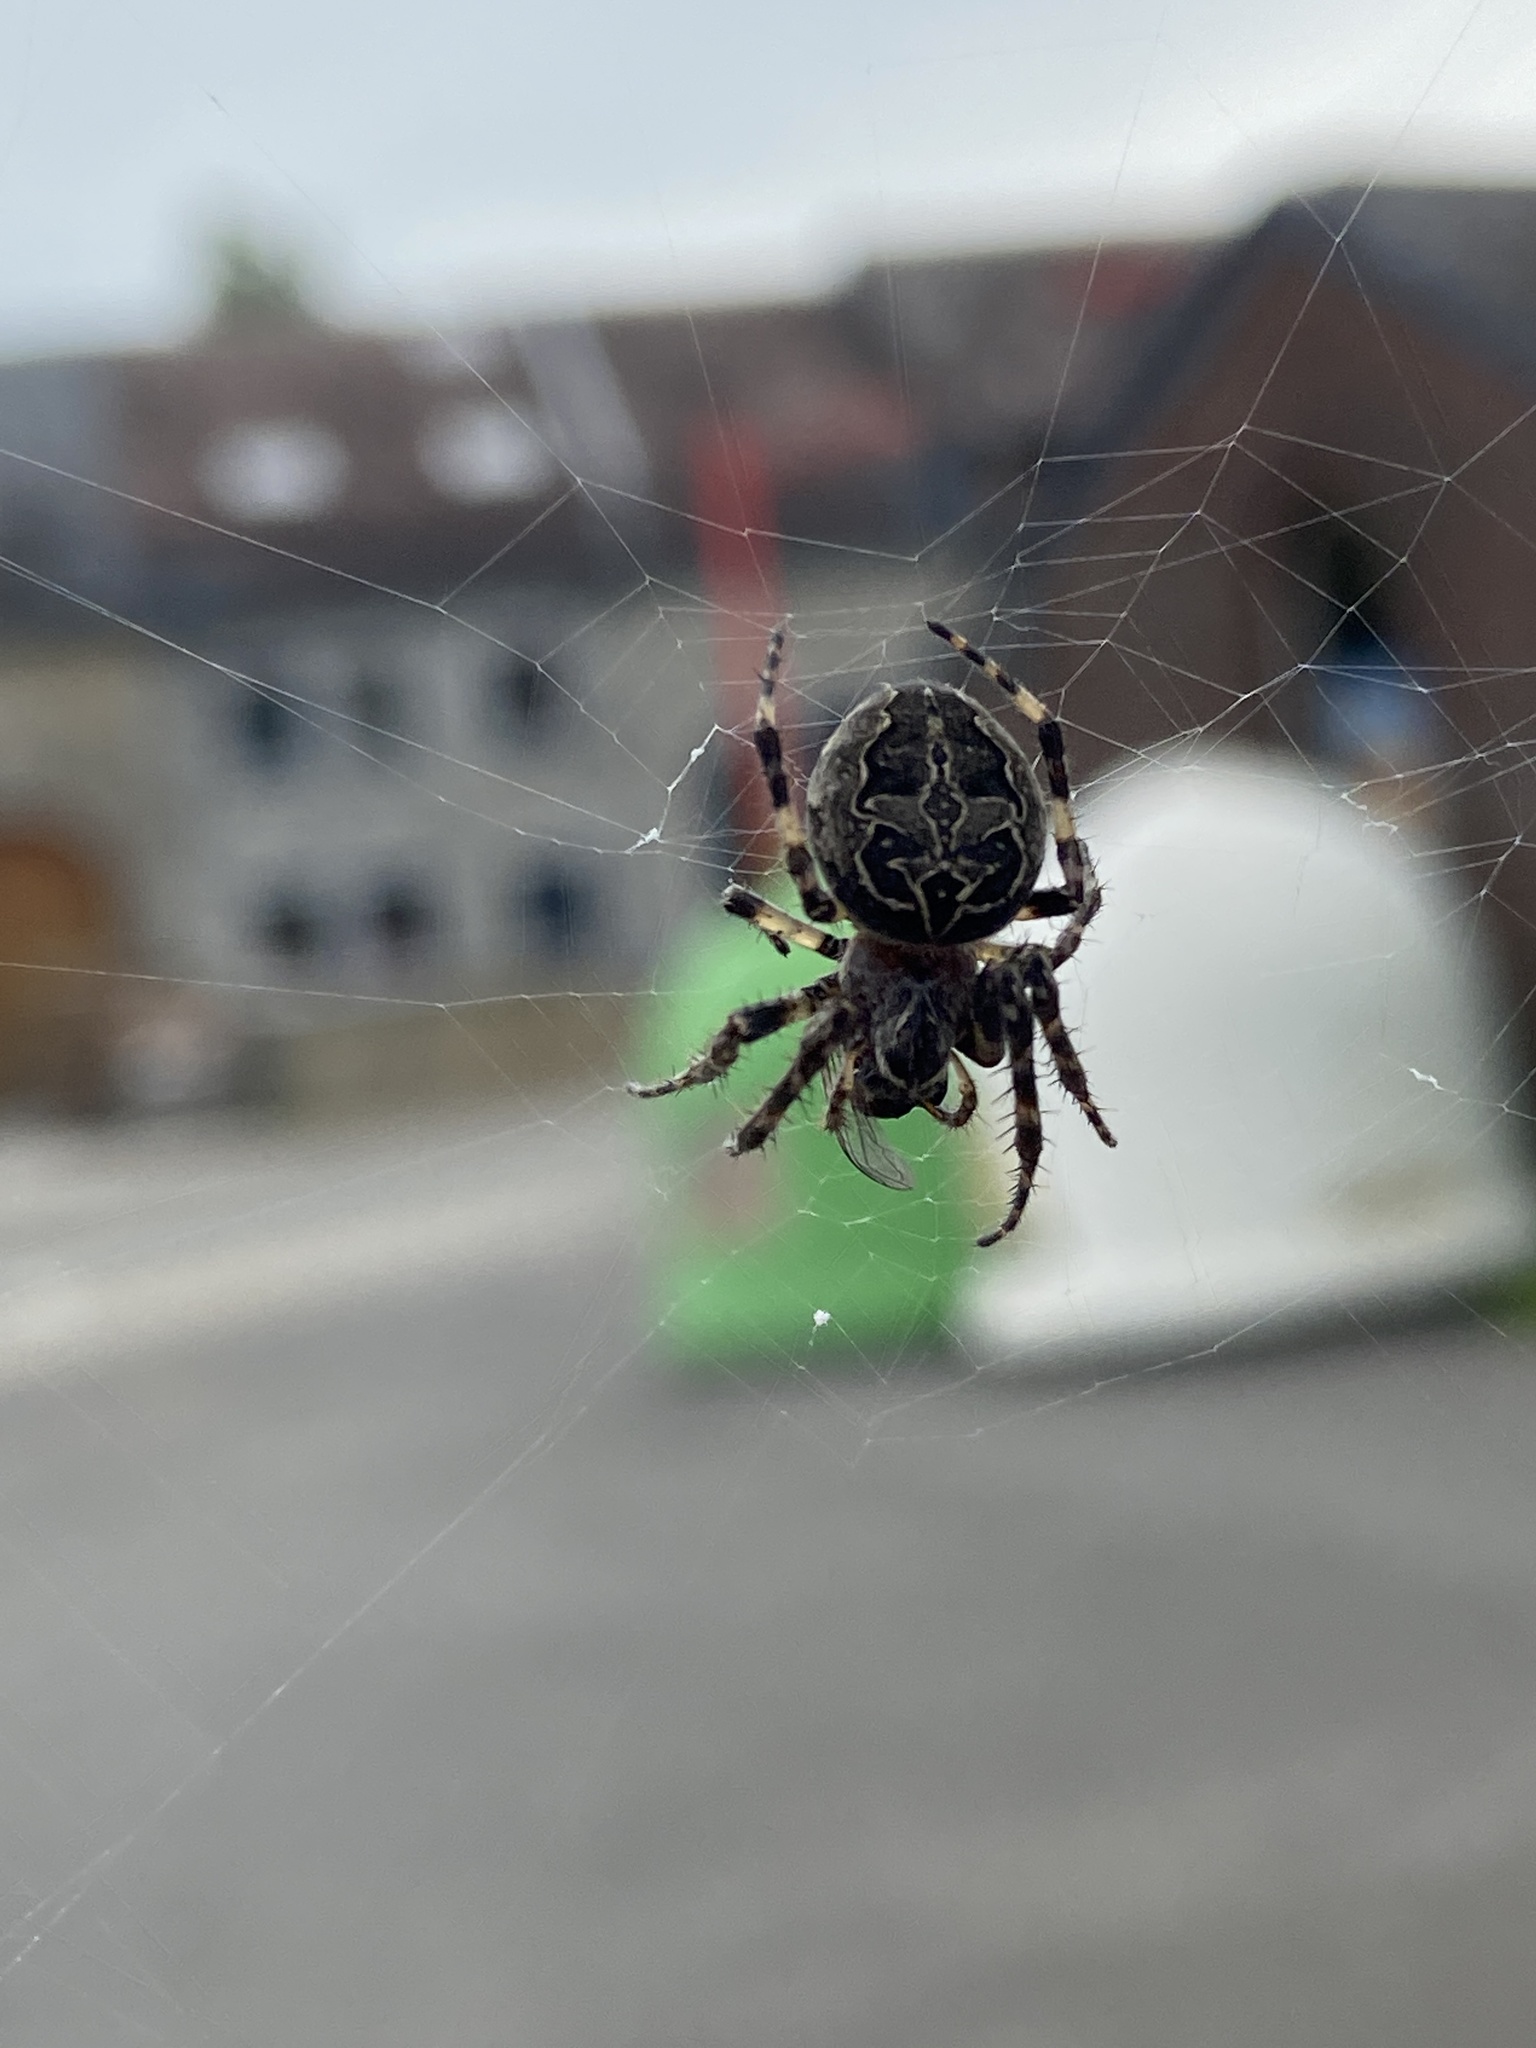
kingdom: Animalia
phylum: Arthropoda
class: Arachnida
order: Araneae
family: Araneidae
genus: Larinioides
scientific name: Larinioides sclopetarius
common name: Bridge orbweaver
